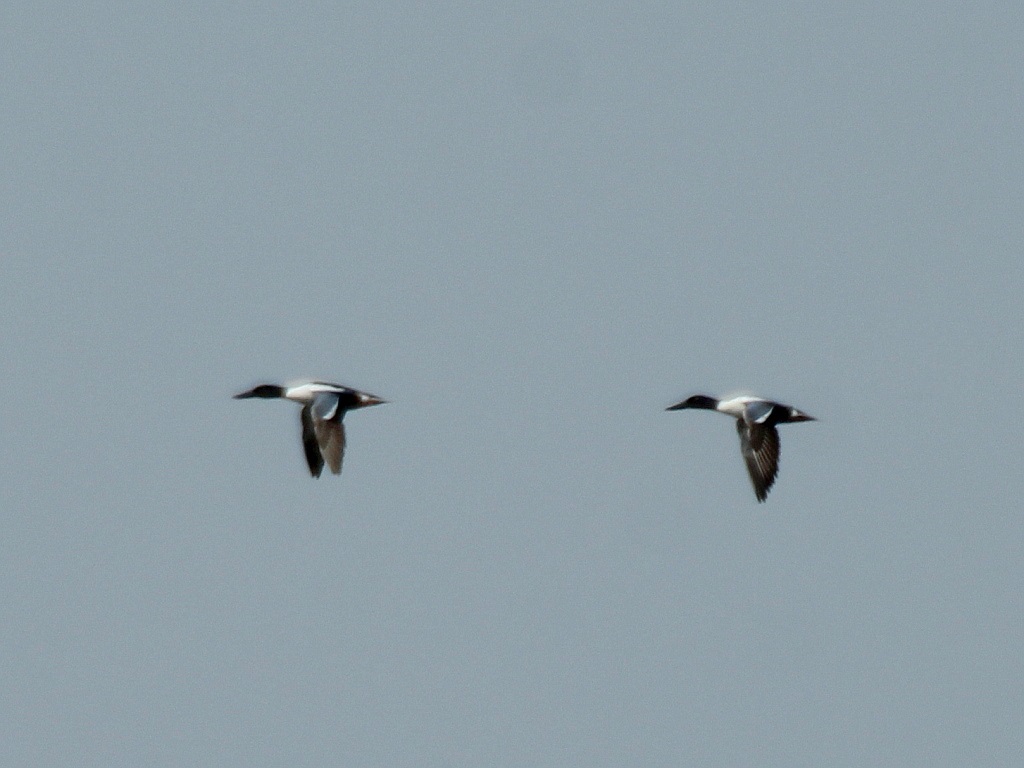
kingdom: Animalia
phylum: Chordata
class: Aves
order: Anseriformes
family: Anatidae
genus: Spatula
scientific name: Spatula clypeata
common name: Northern shoveler
